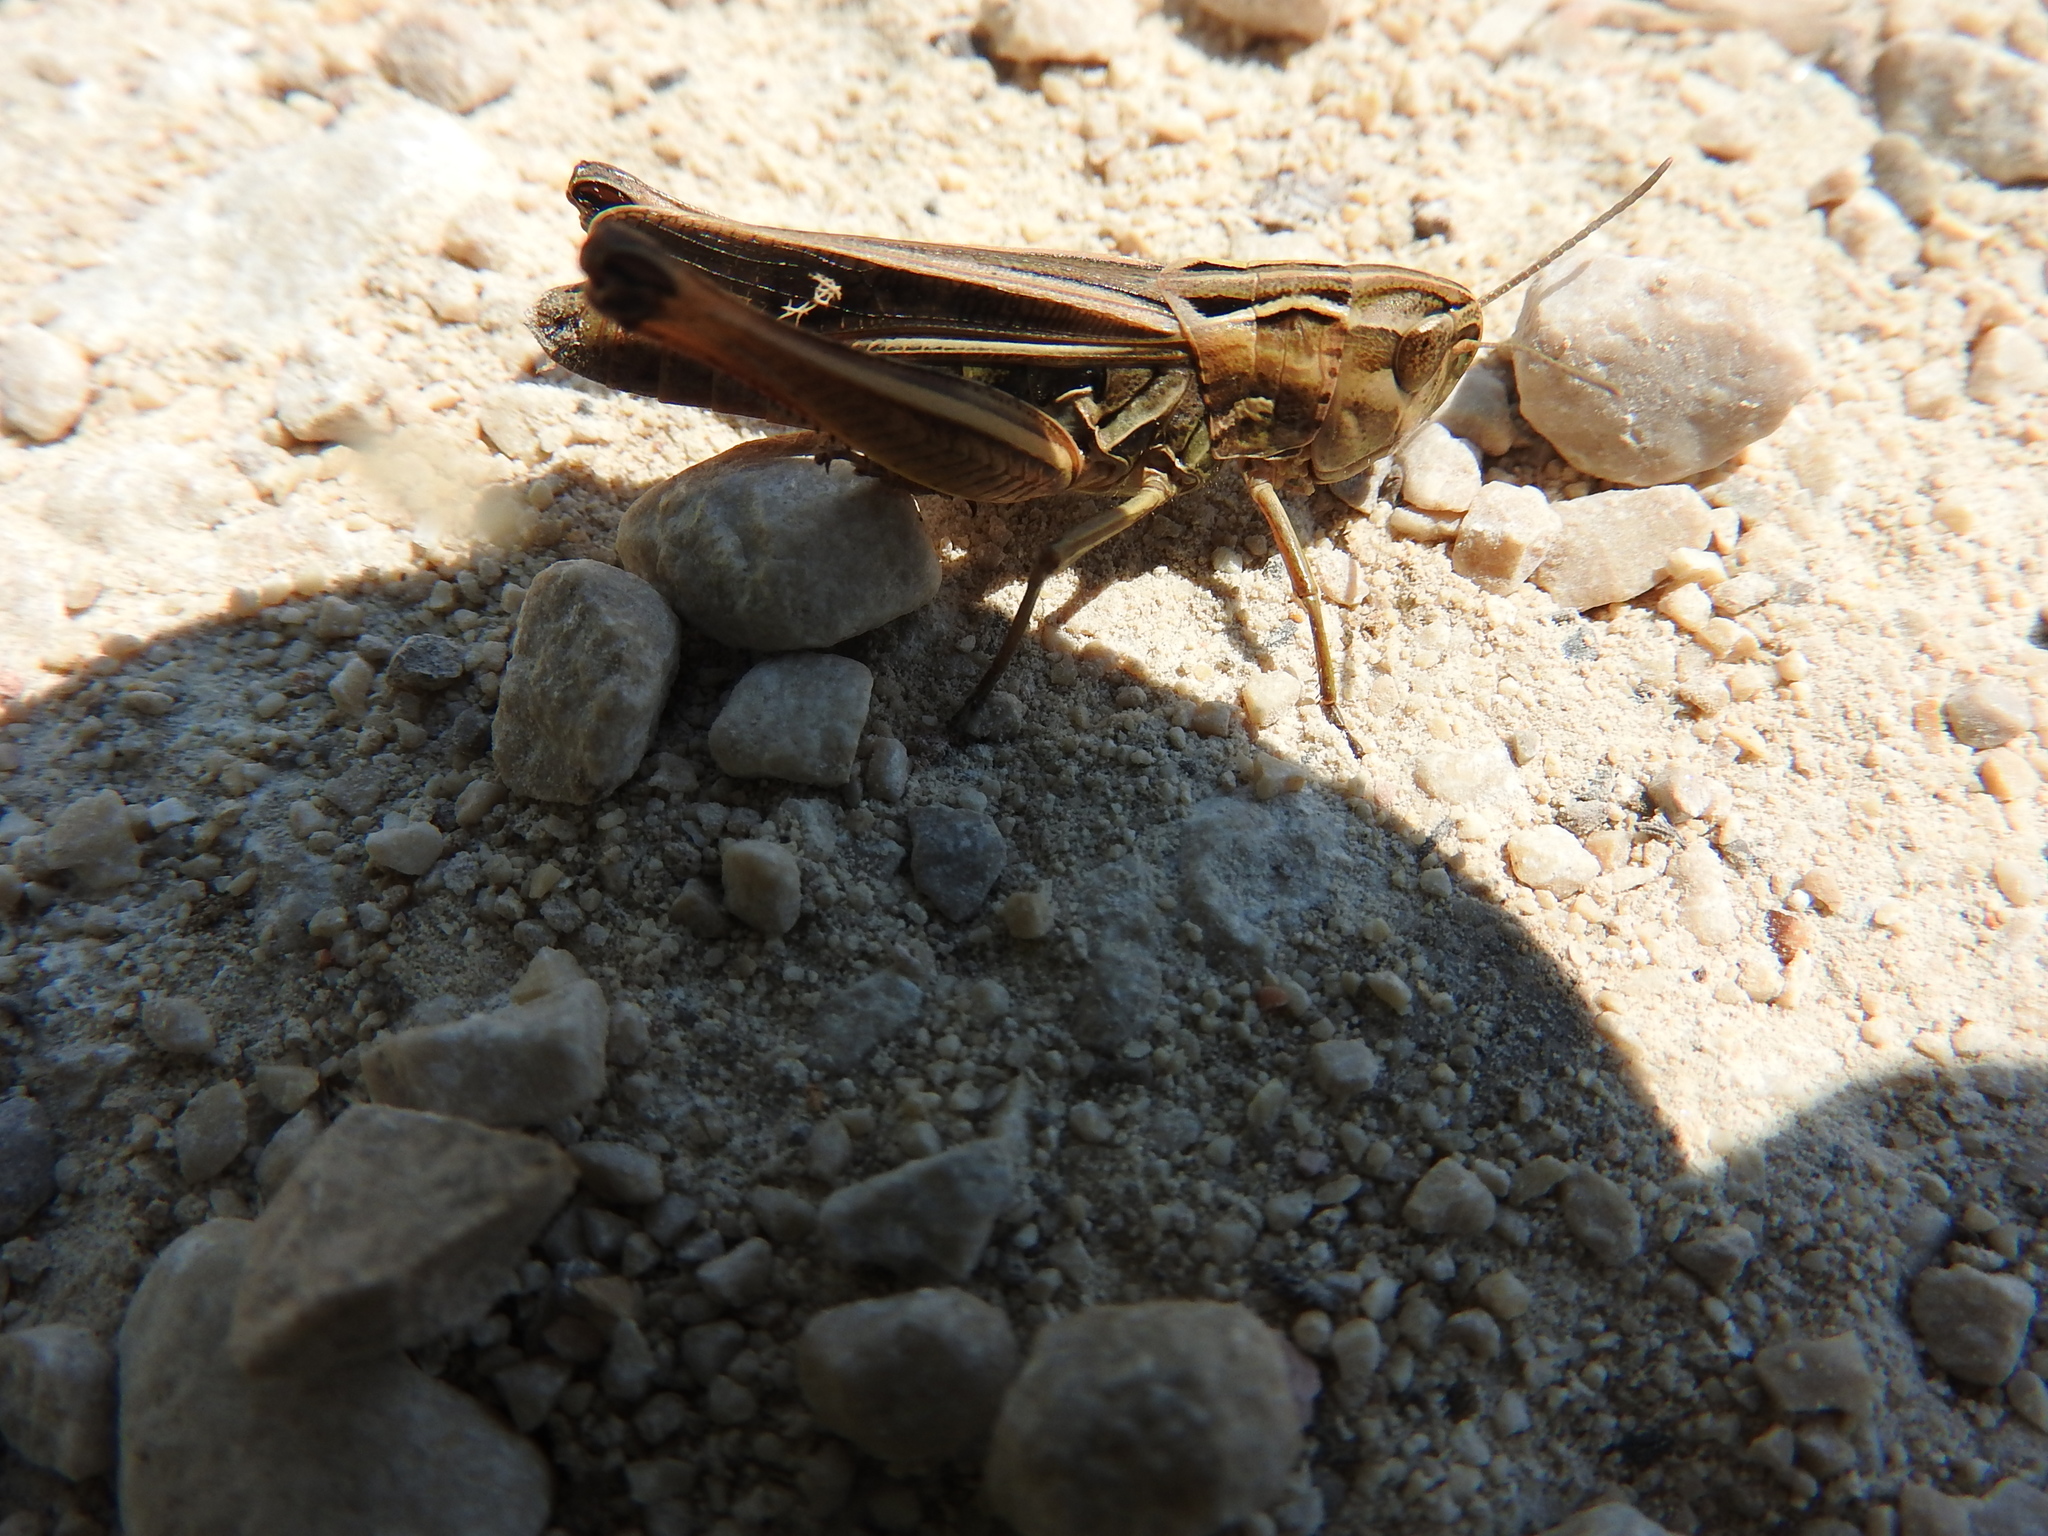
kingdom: Animalia
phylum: Arthropoda
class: Insecta
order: Orthoptera
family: Acrididae
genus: Stenobothrus
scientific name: Stenobothrus lineatus
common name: Stripe-winged grasshopper
